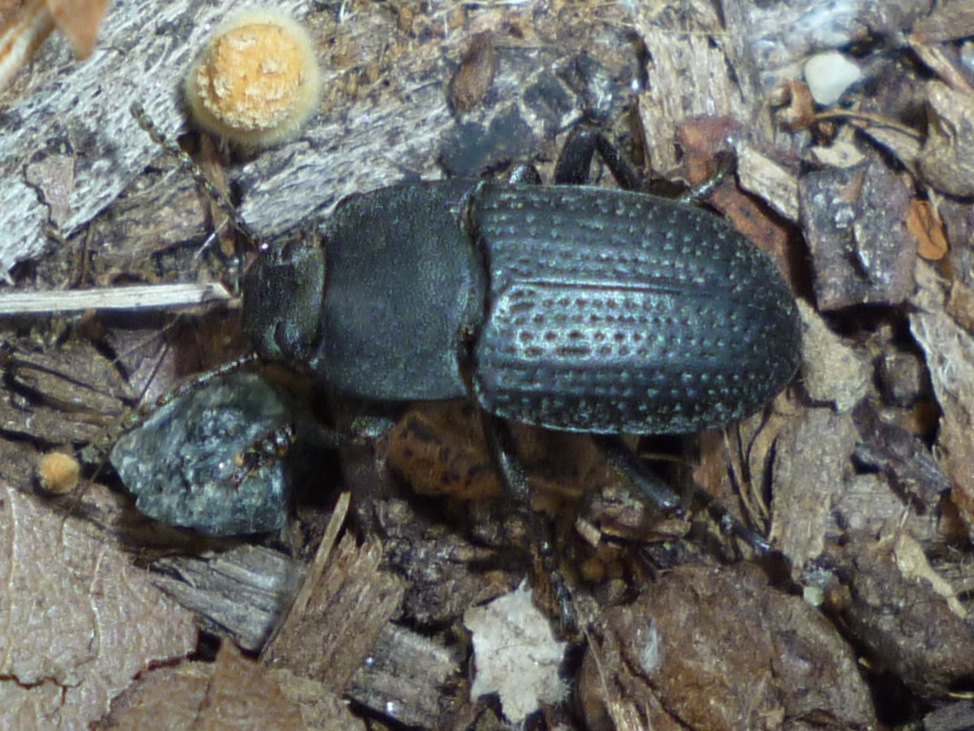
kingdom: Animalia
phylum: Arthropoda
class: Insecta
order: Coleoptera
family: Tenebrionidae
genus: Asiopus
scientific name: Asiopus
